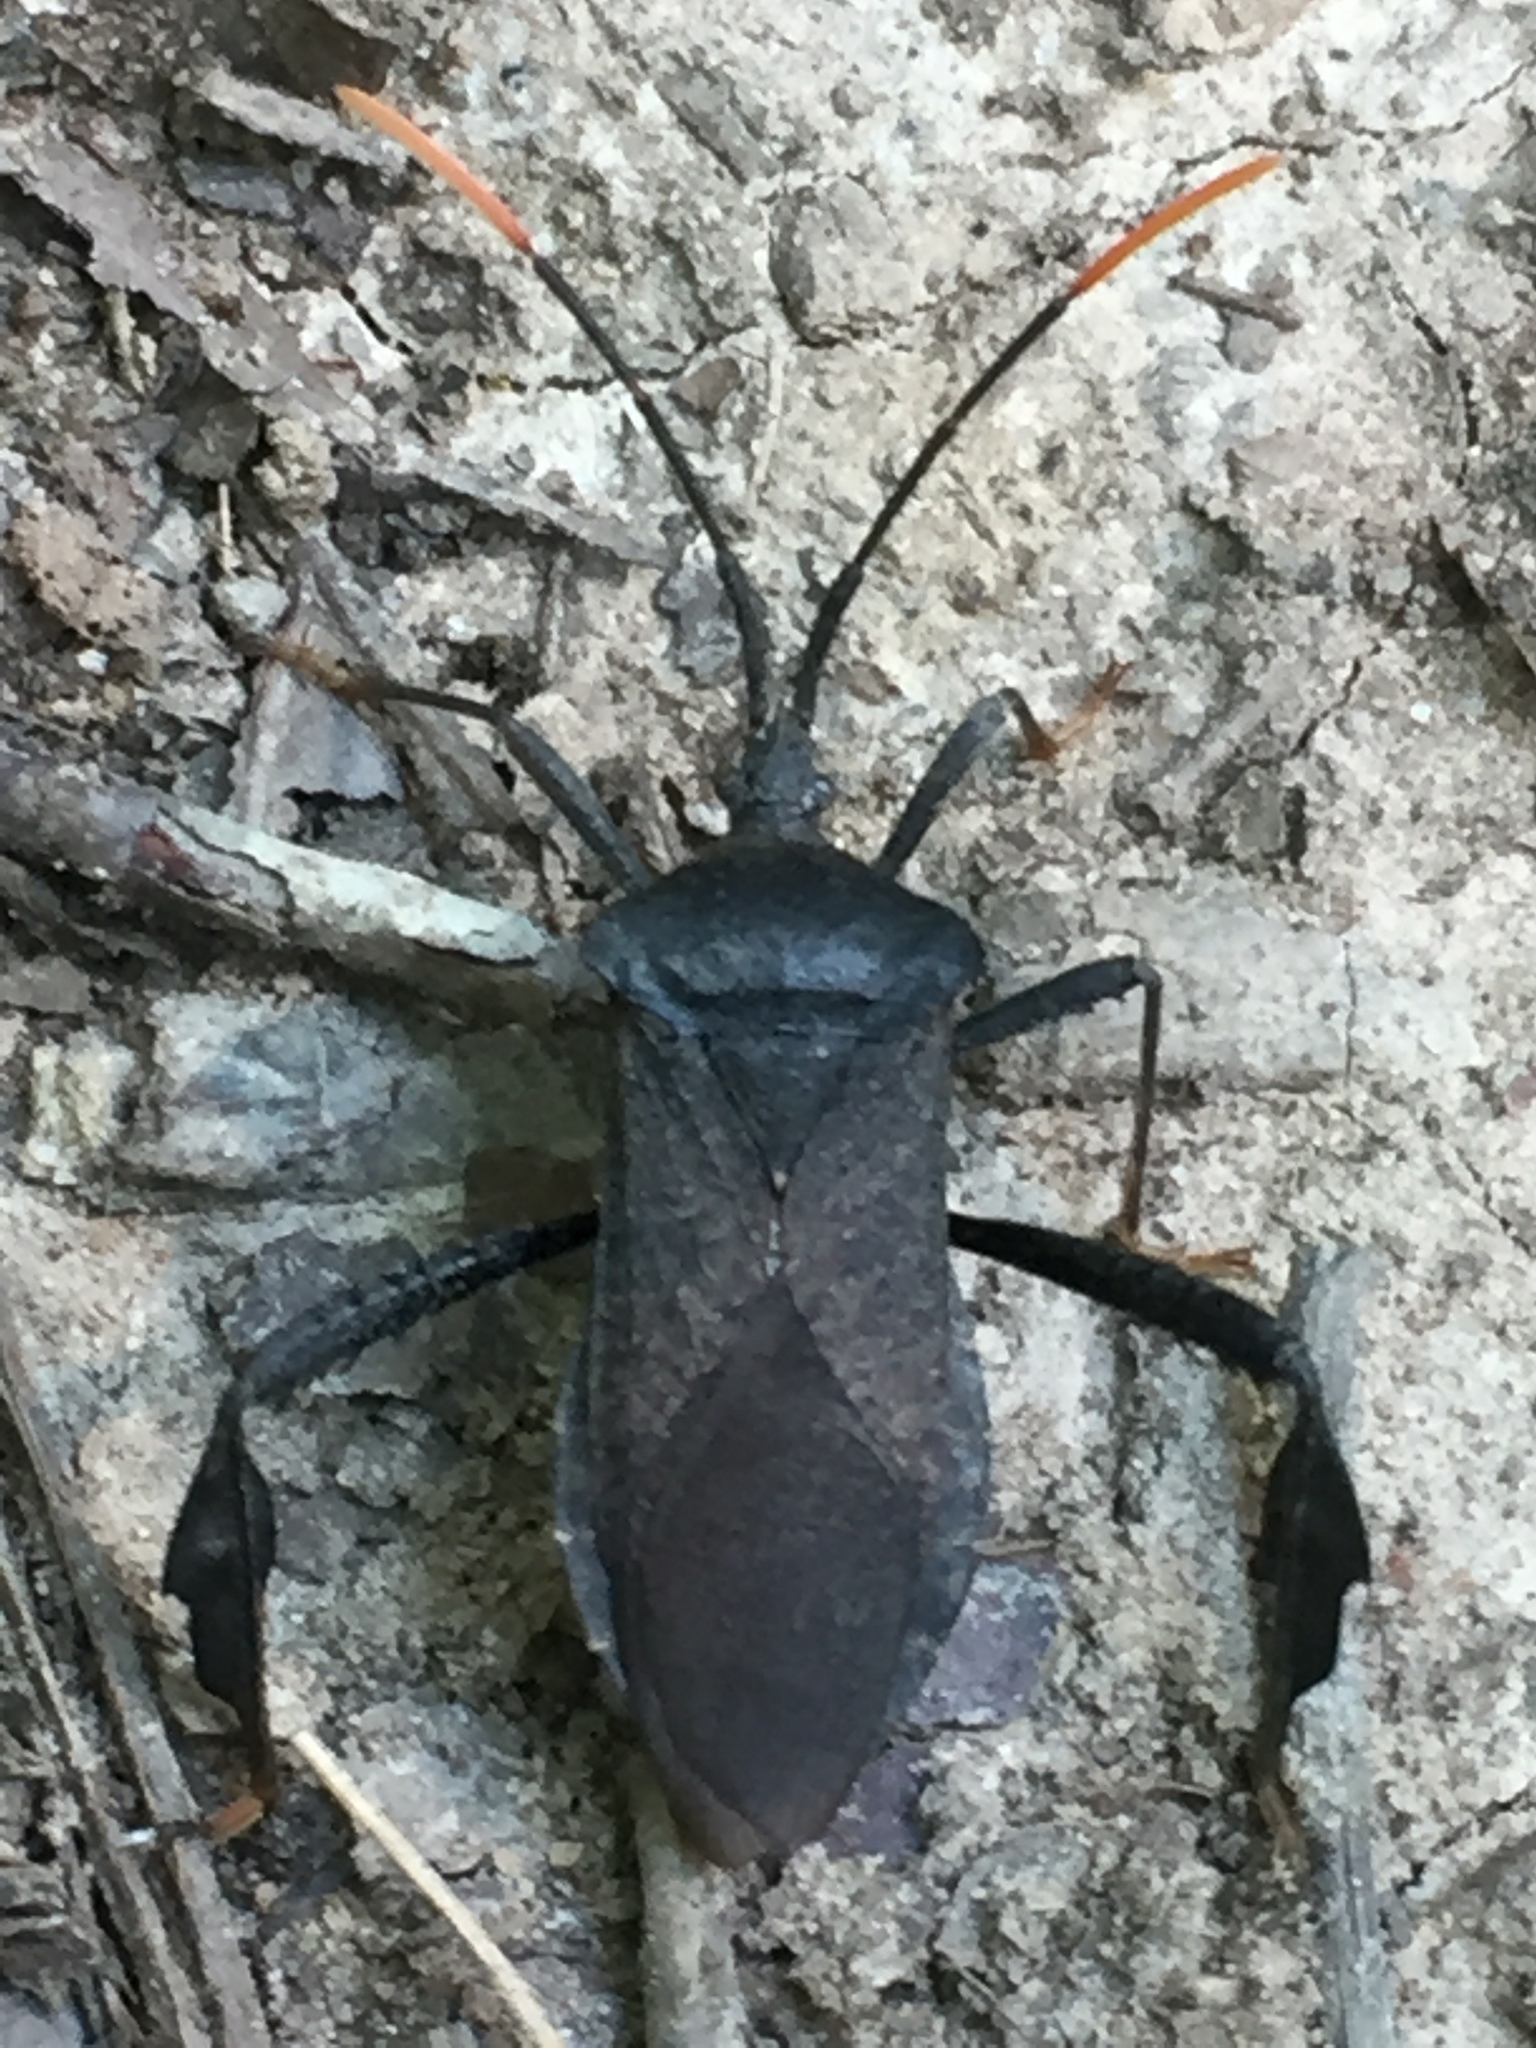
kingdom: Animalia
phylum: Arthropoda
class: Insecta
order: Hemiptera
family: Coreidae
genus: Acanthocephala
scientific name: Acanthocephala terminalis
